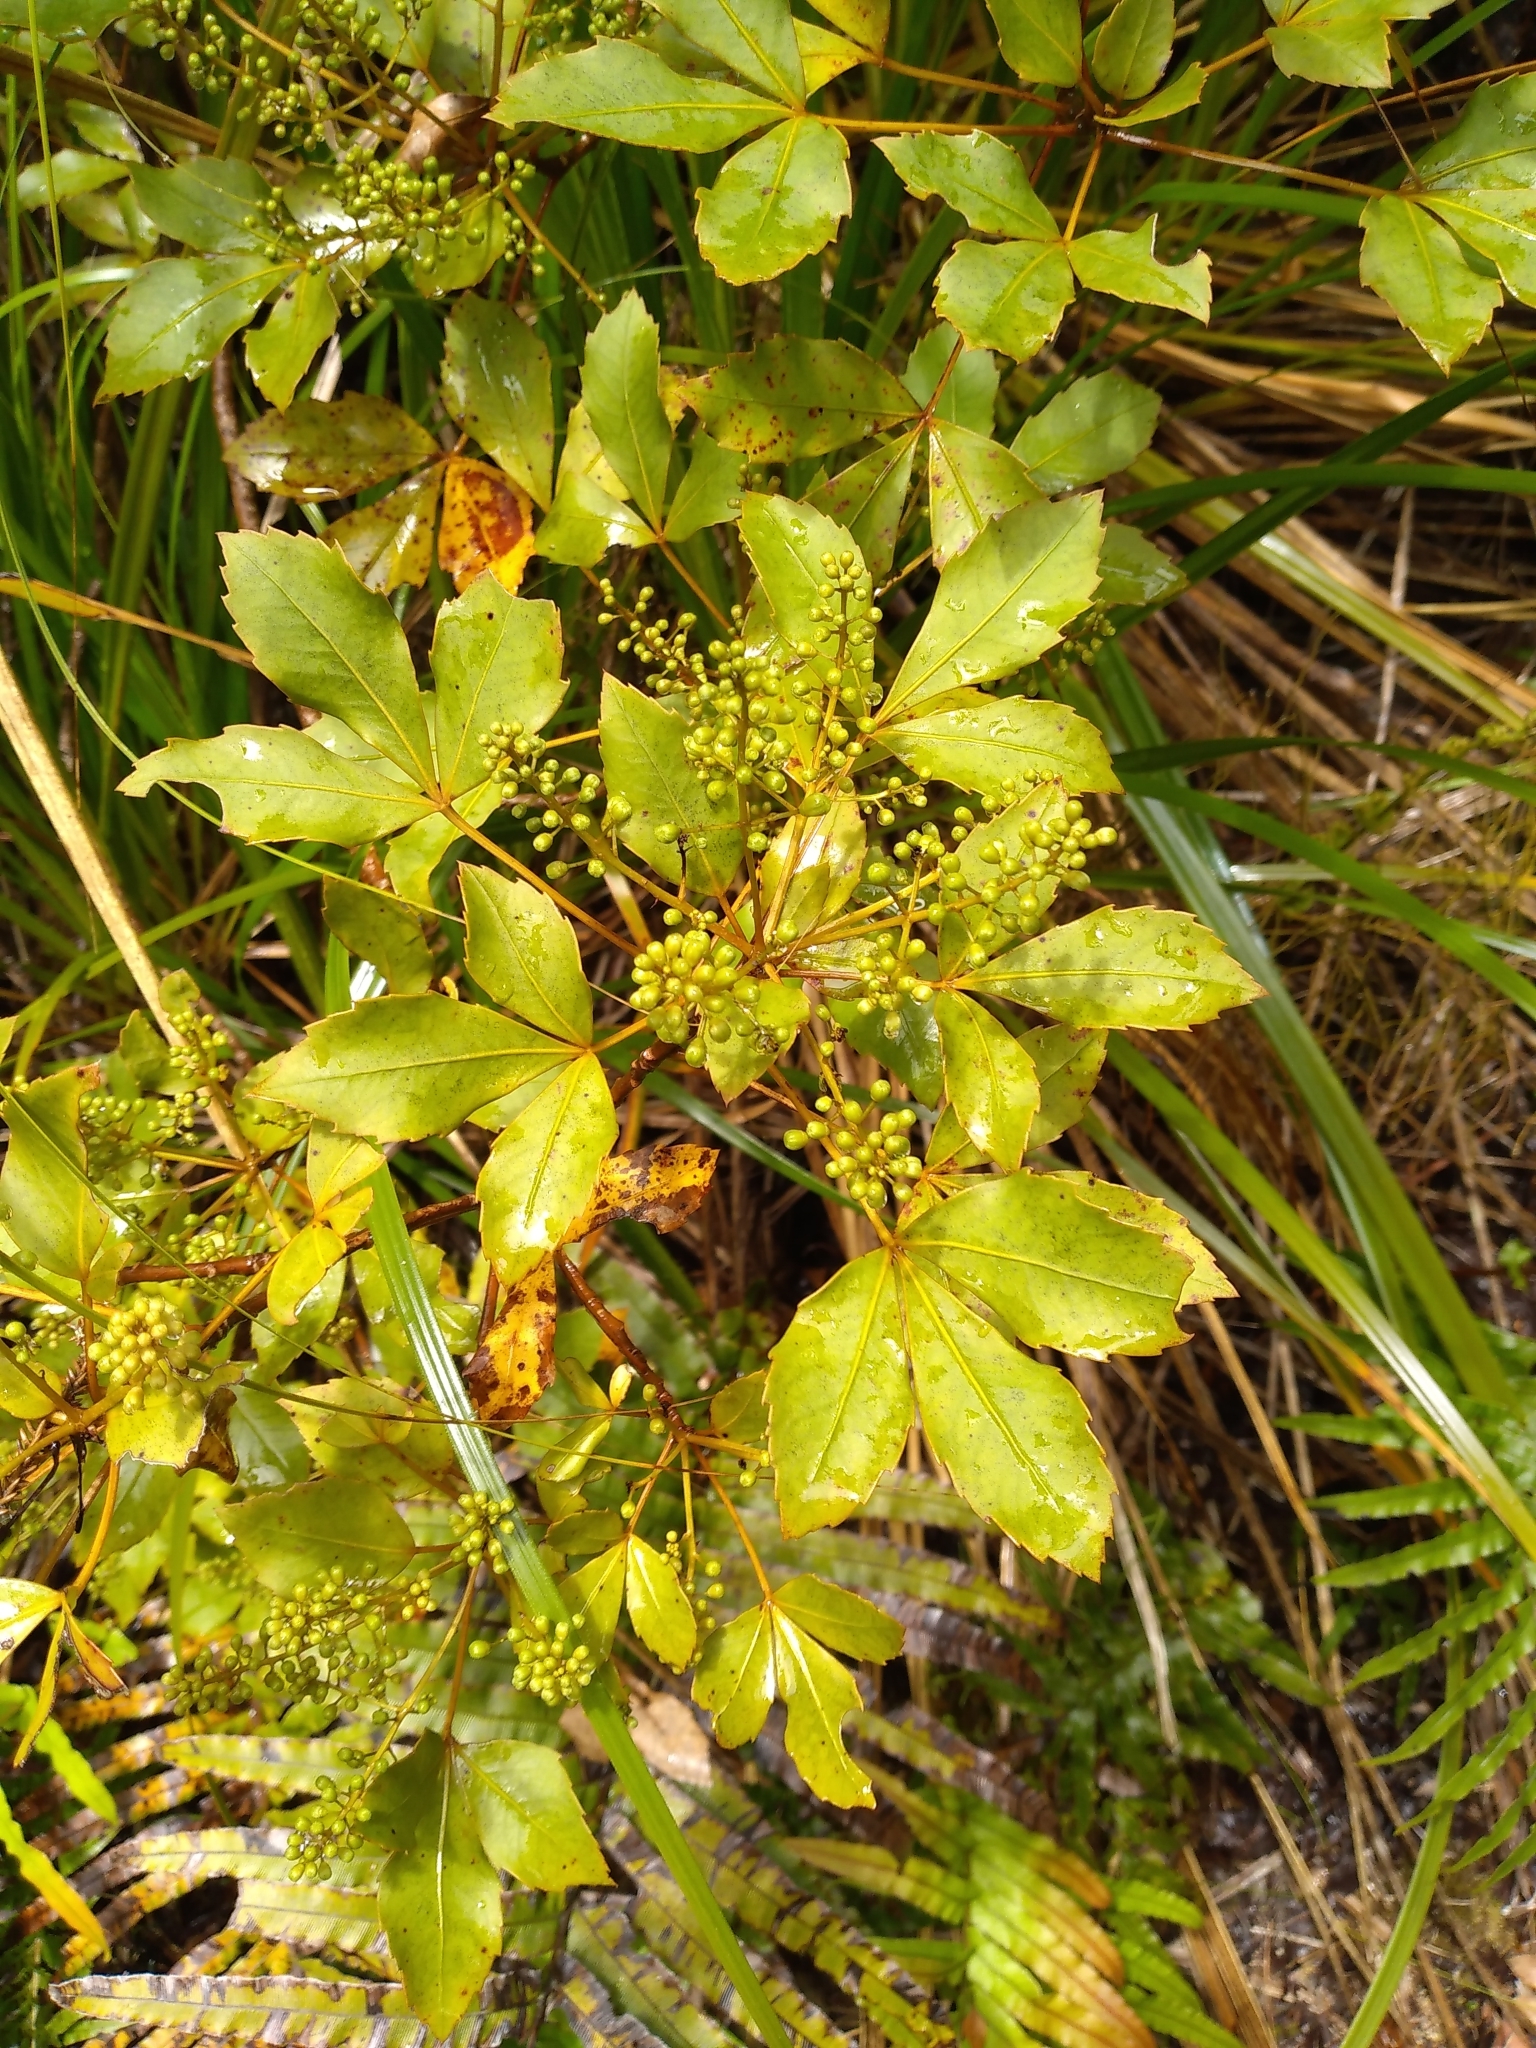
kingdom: Plantae
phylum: Tracheophyta
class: Magnoliopsida
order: Apiales
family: Araliaceae
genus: Pseudopanax
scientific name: Pseudopanax discolor
